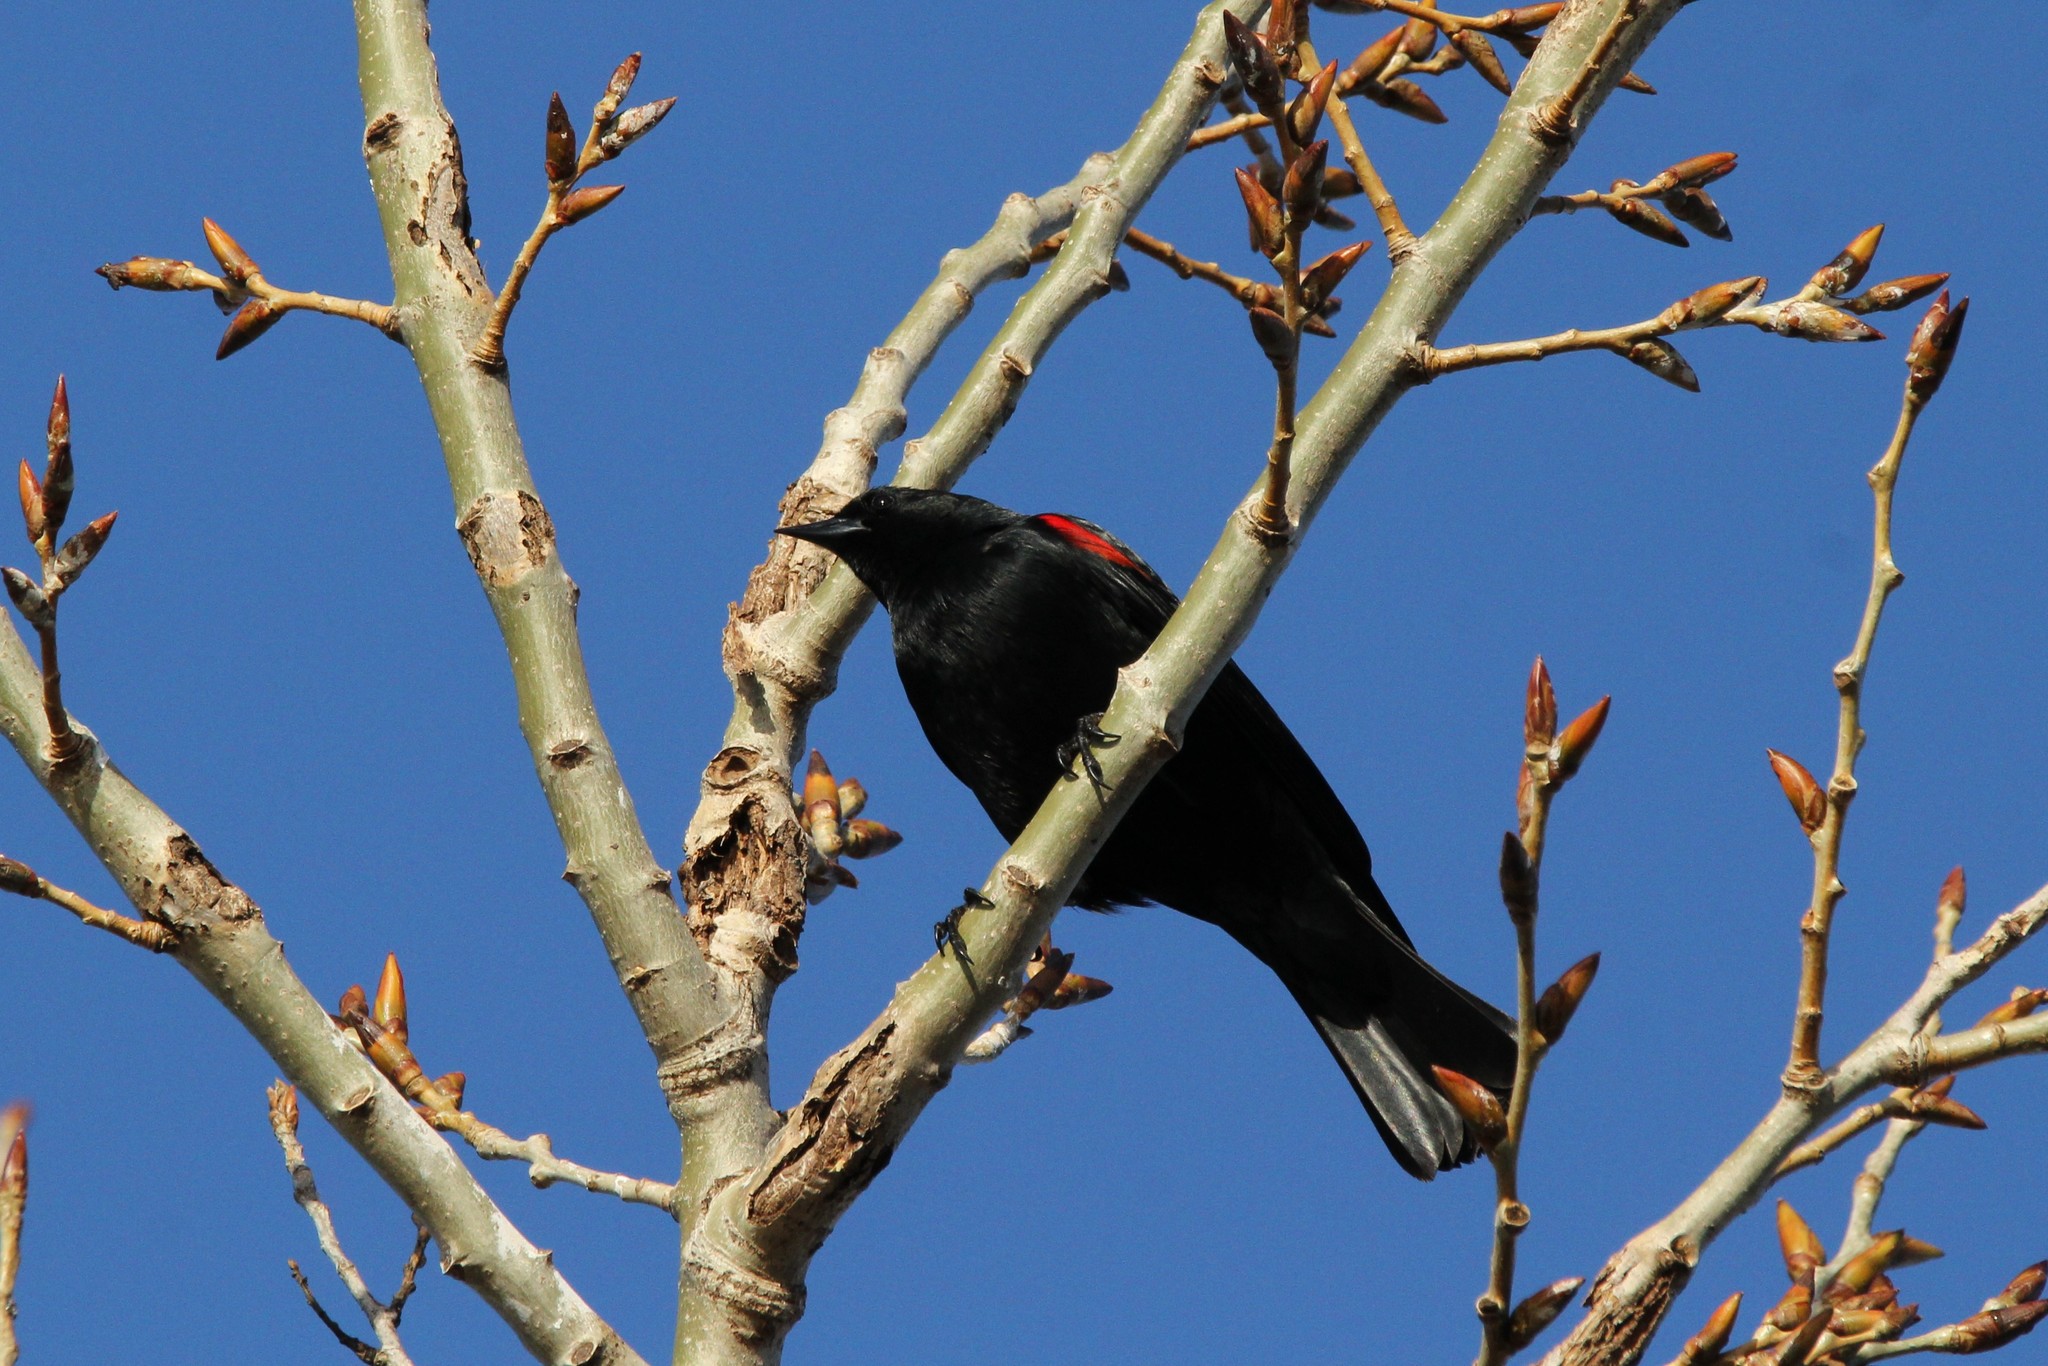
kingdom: Animalia
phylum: Chordata
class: Aves
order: Passeriformes
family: Icteridae
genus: Agelaius
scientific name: Agelaius phoeniceus
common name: Red-winged blackbird
